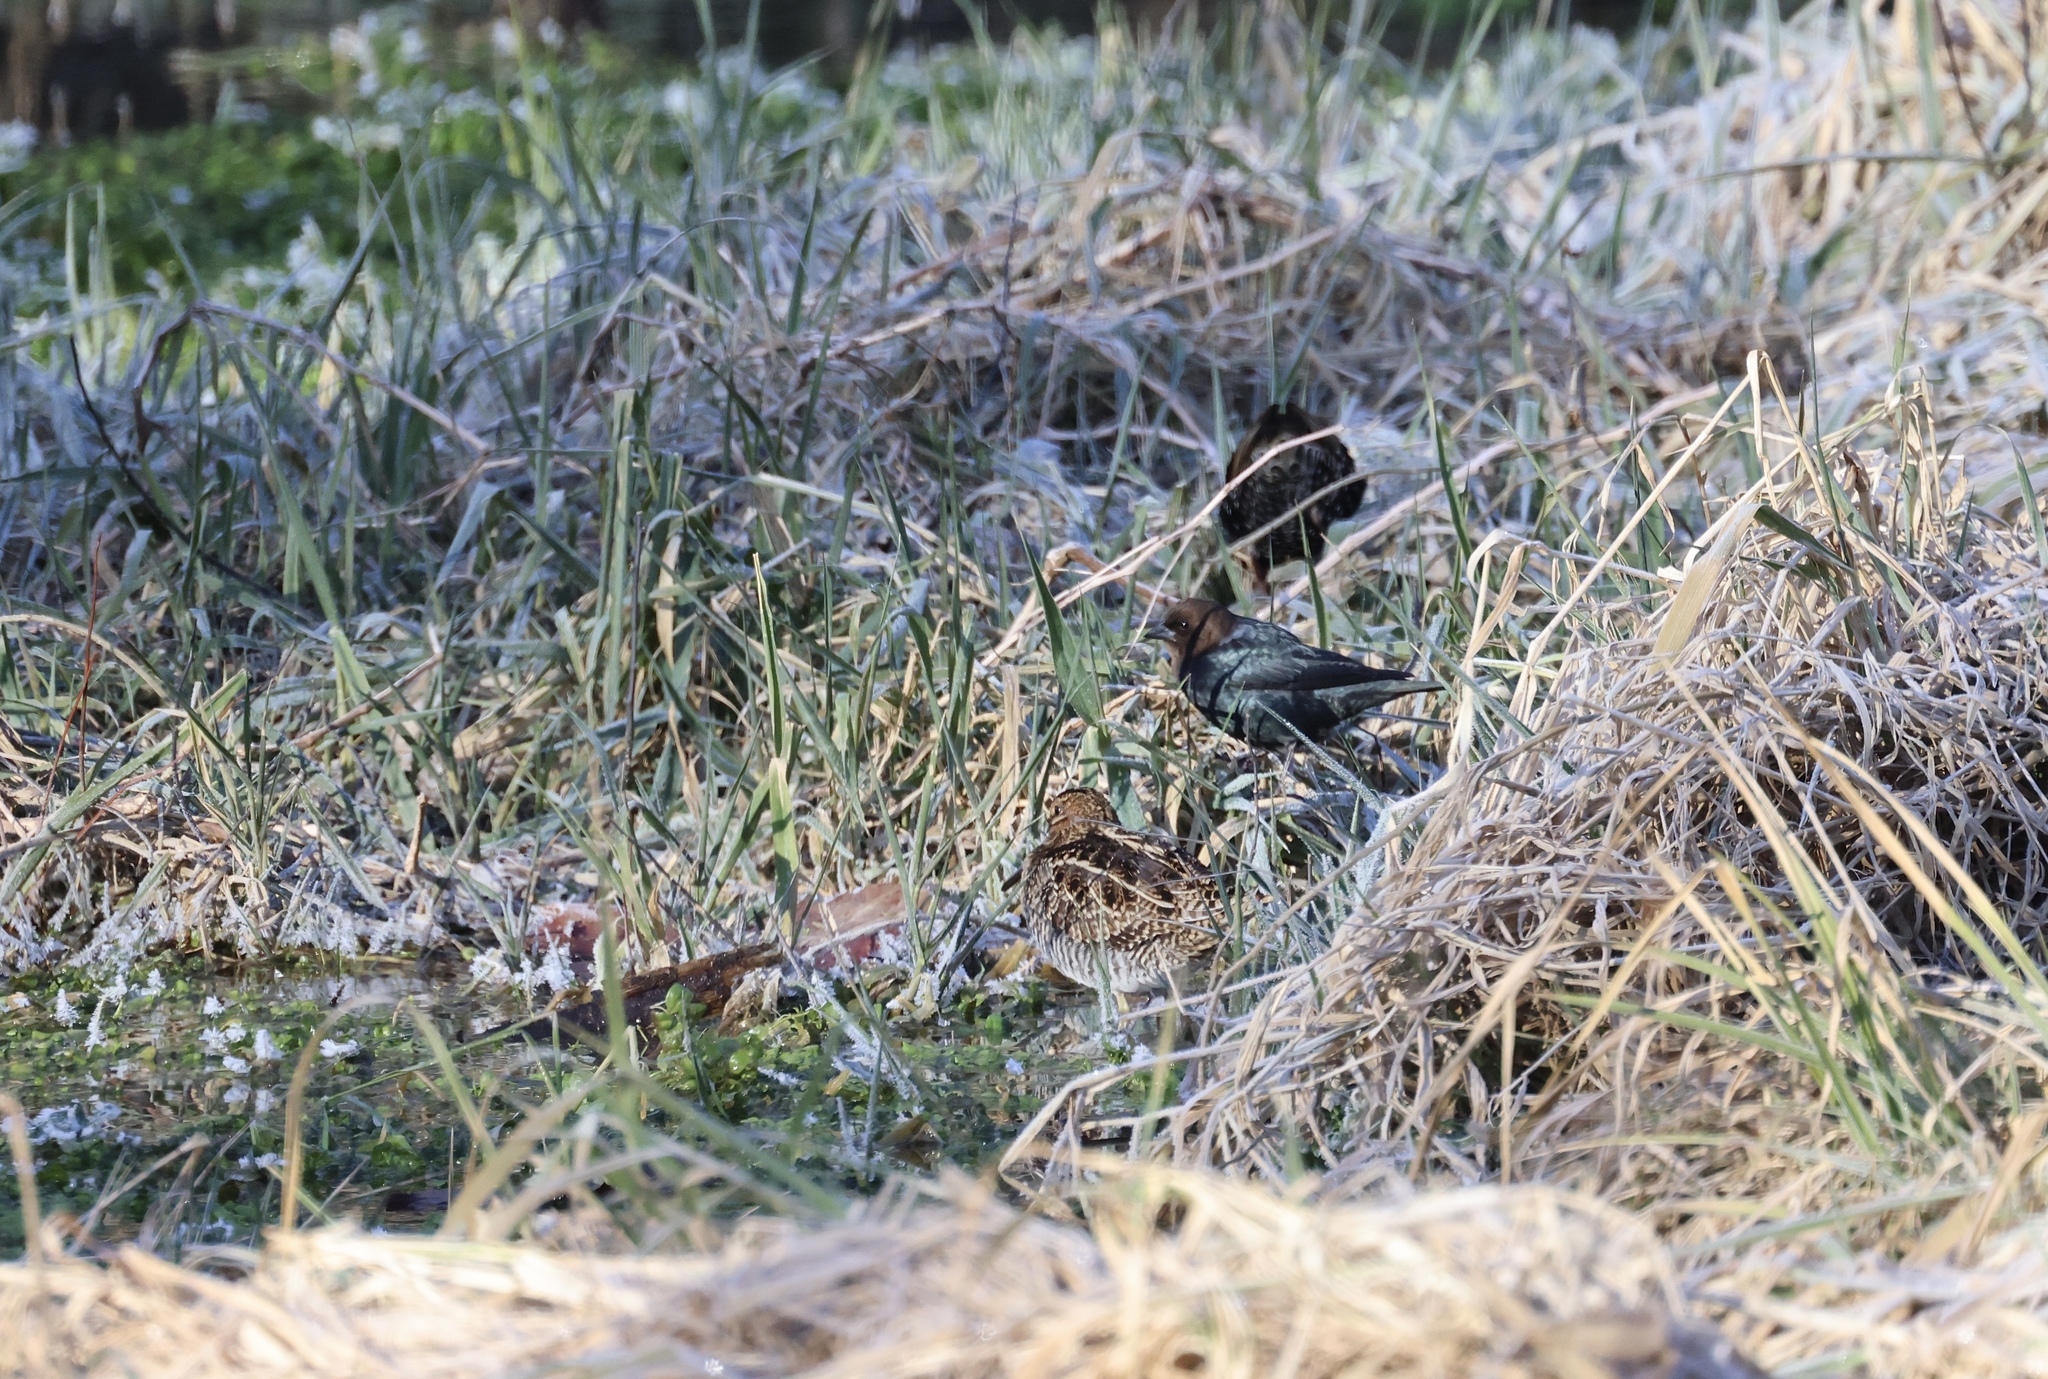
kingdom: Animalia
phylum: Chordata
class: Aves
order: Passeriformes
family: Icteridae
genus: Molothrus
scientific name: Molothrus ater
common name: Brown-headed cowbird
